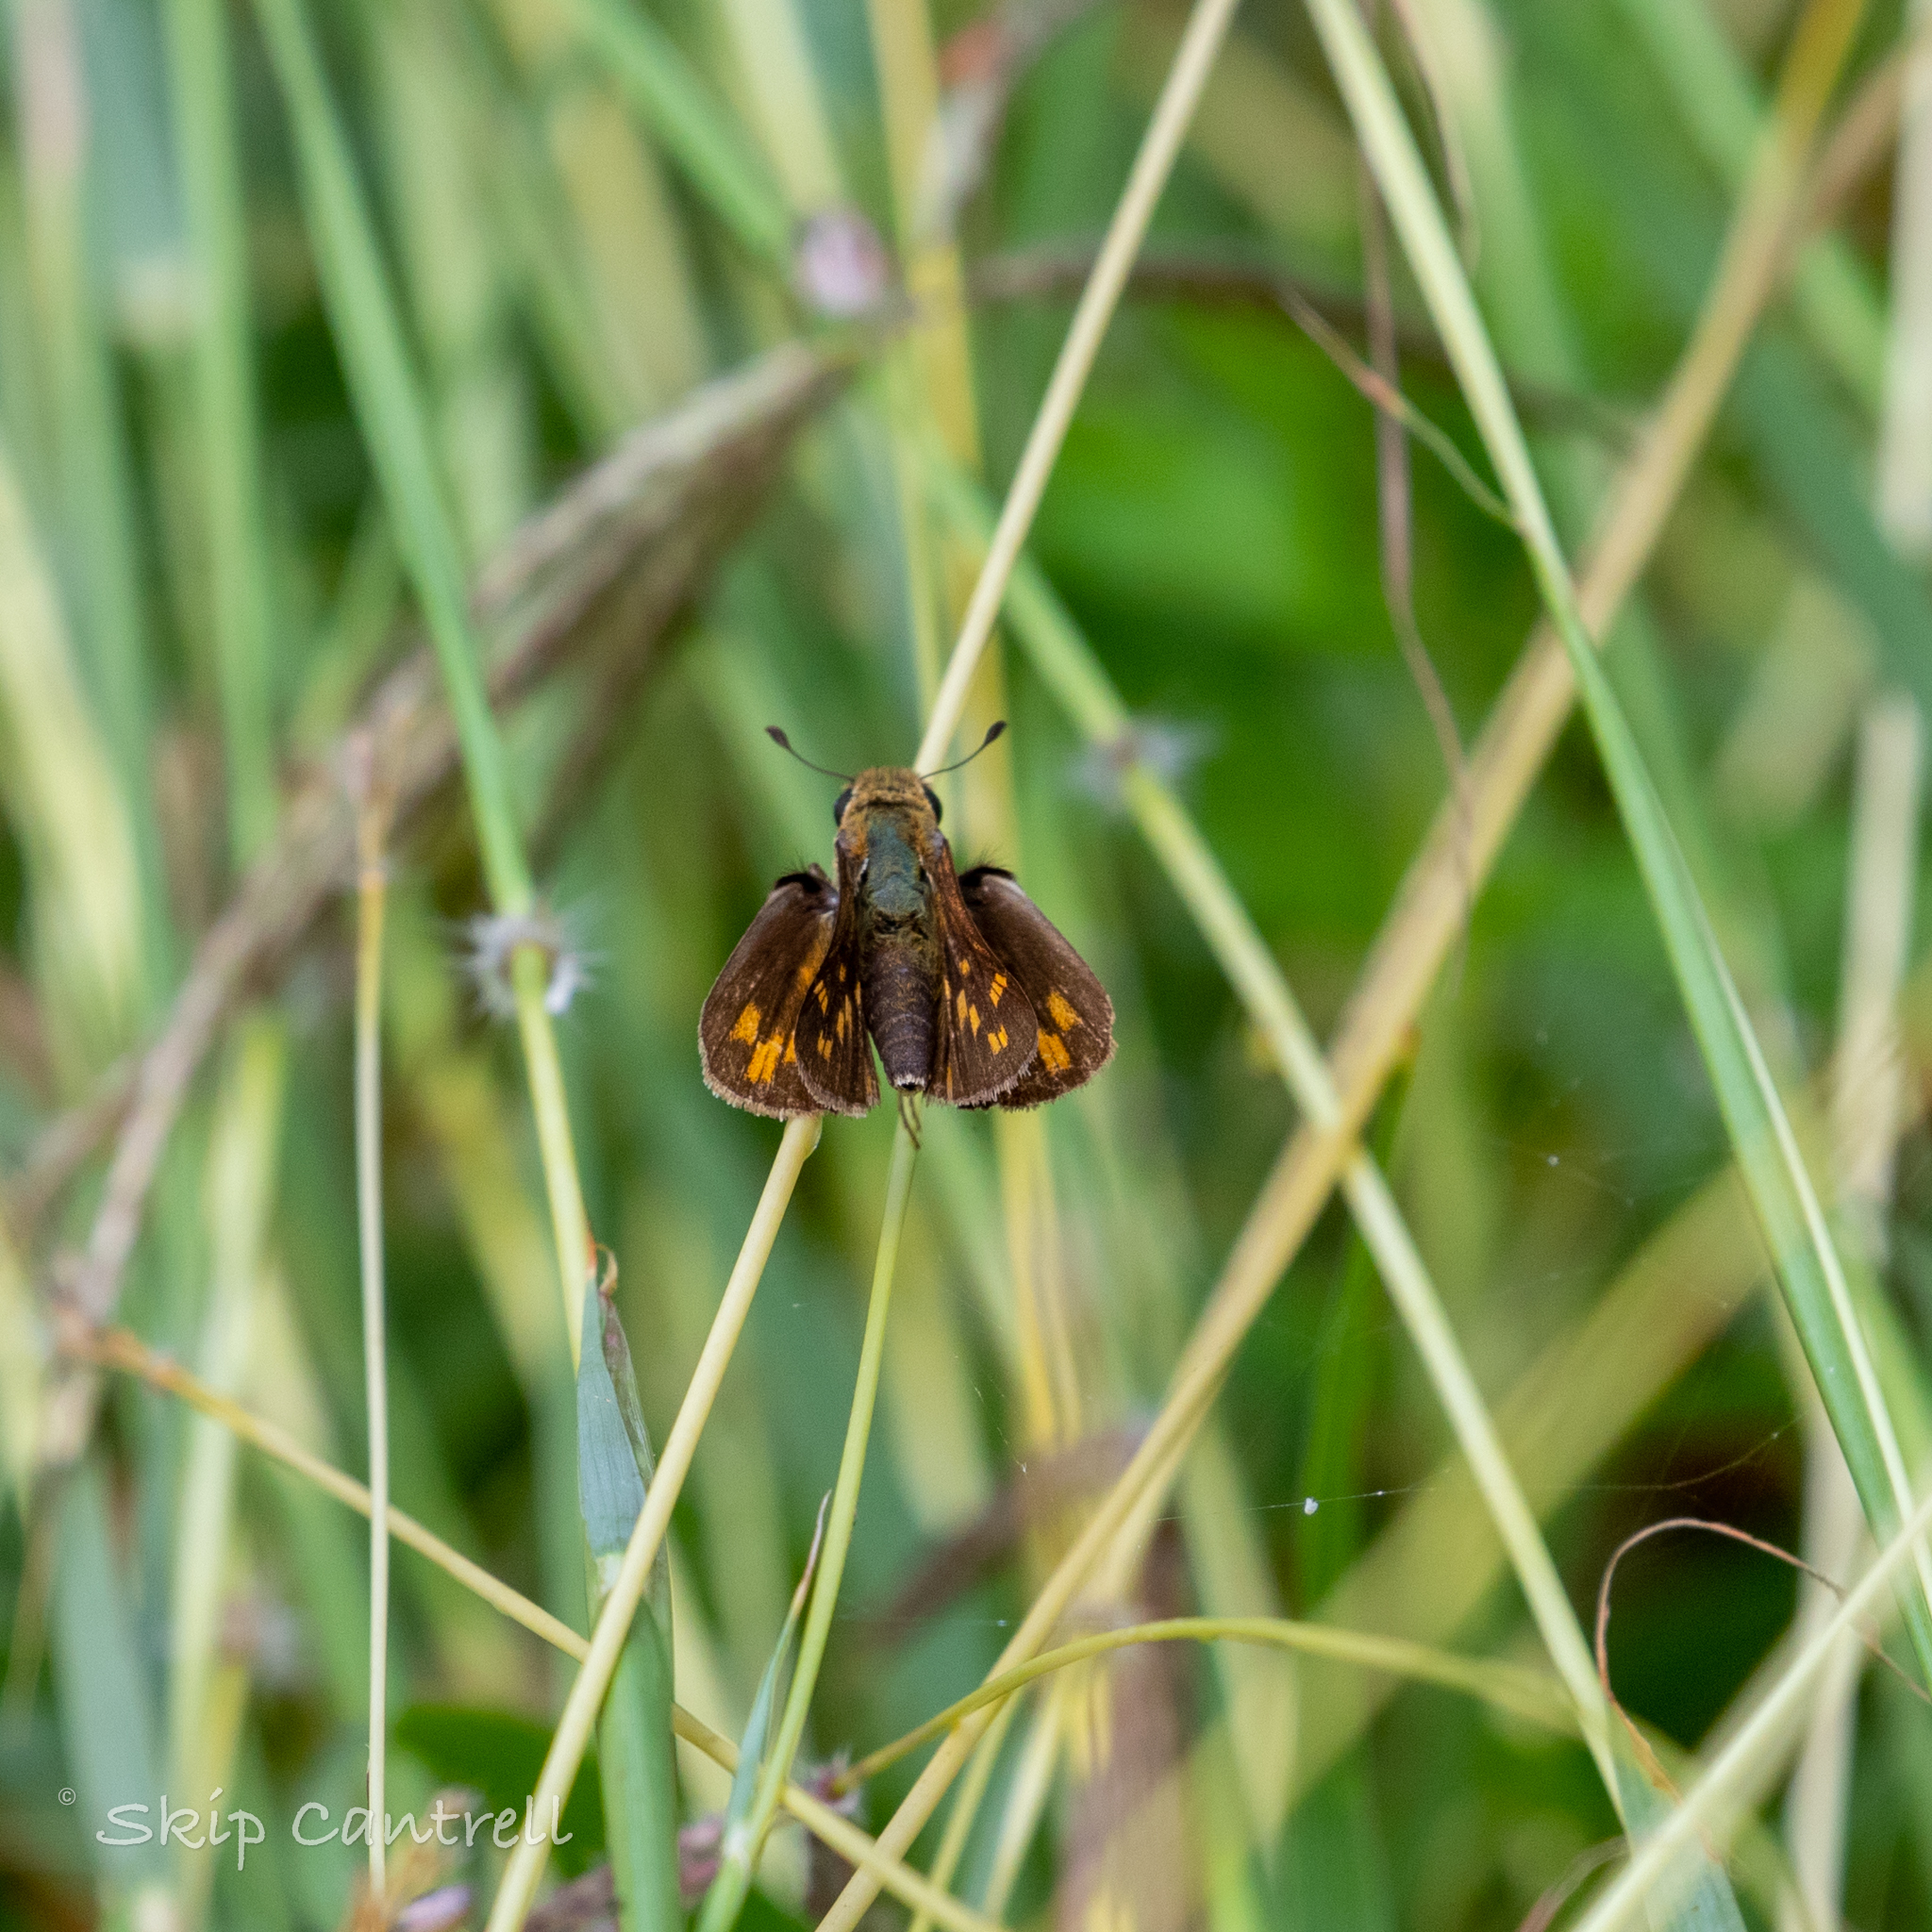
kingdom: Animalia
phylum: Arthropoda
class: Insecta
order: Lepidoptera
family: Hesperiidae
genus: Hylephila
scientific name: Hylephila phyleus
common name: Fiery skipper
